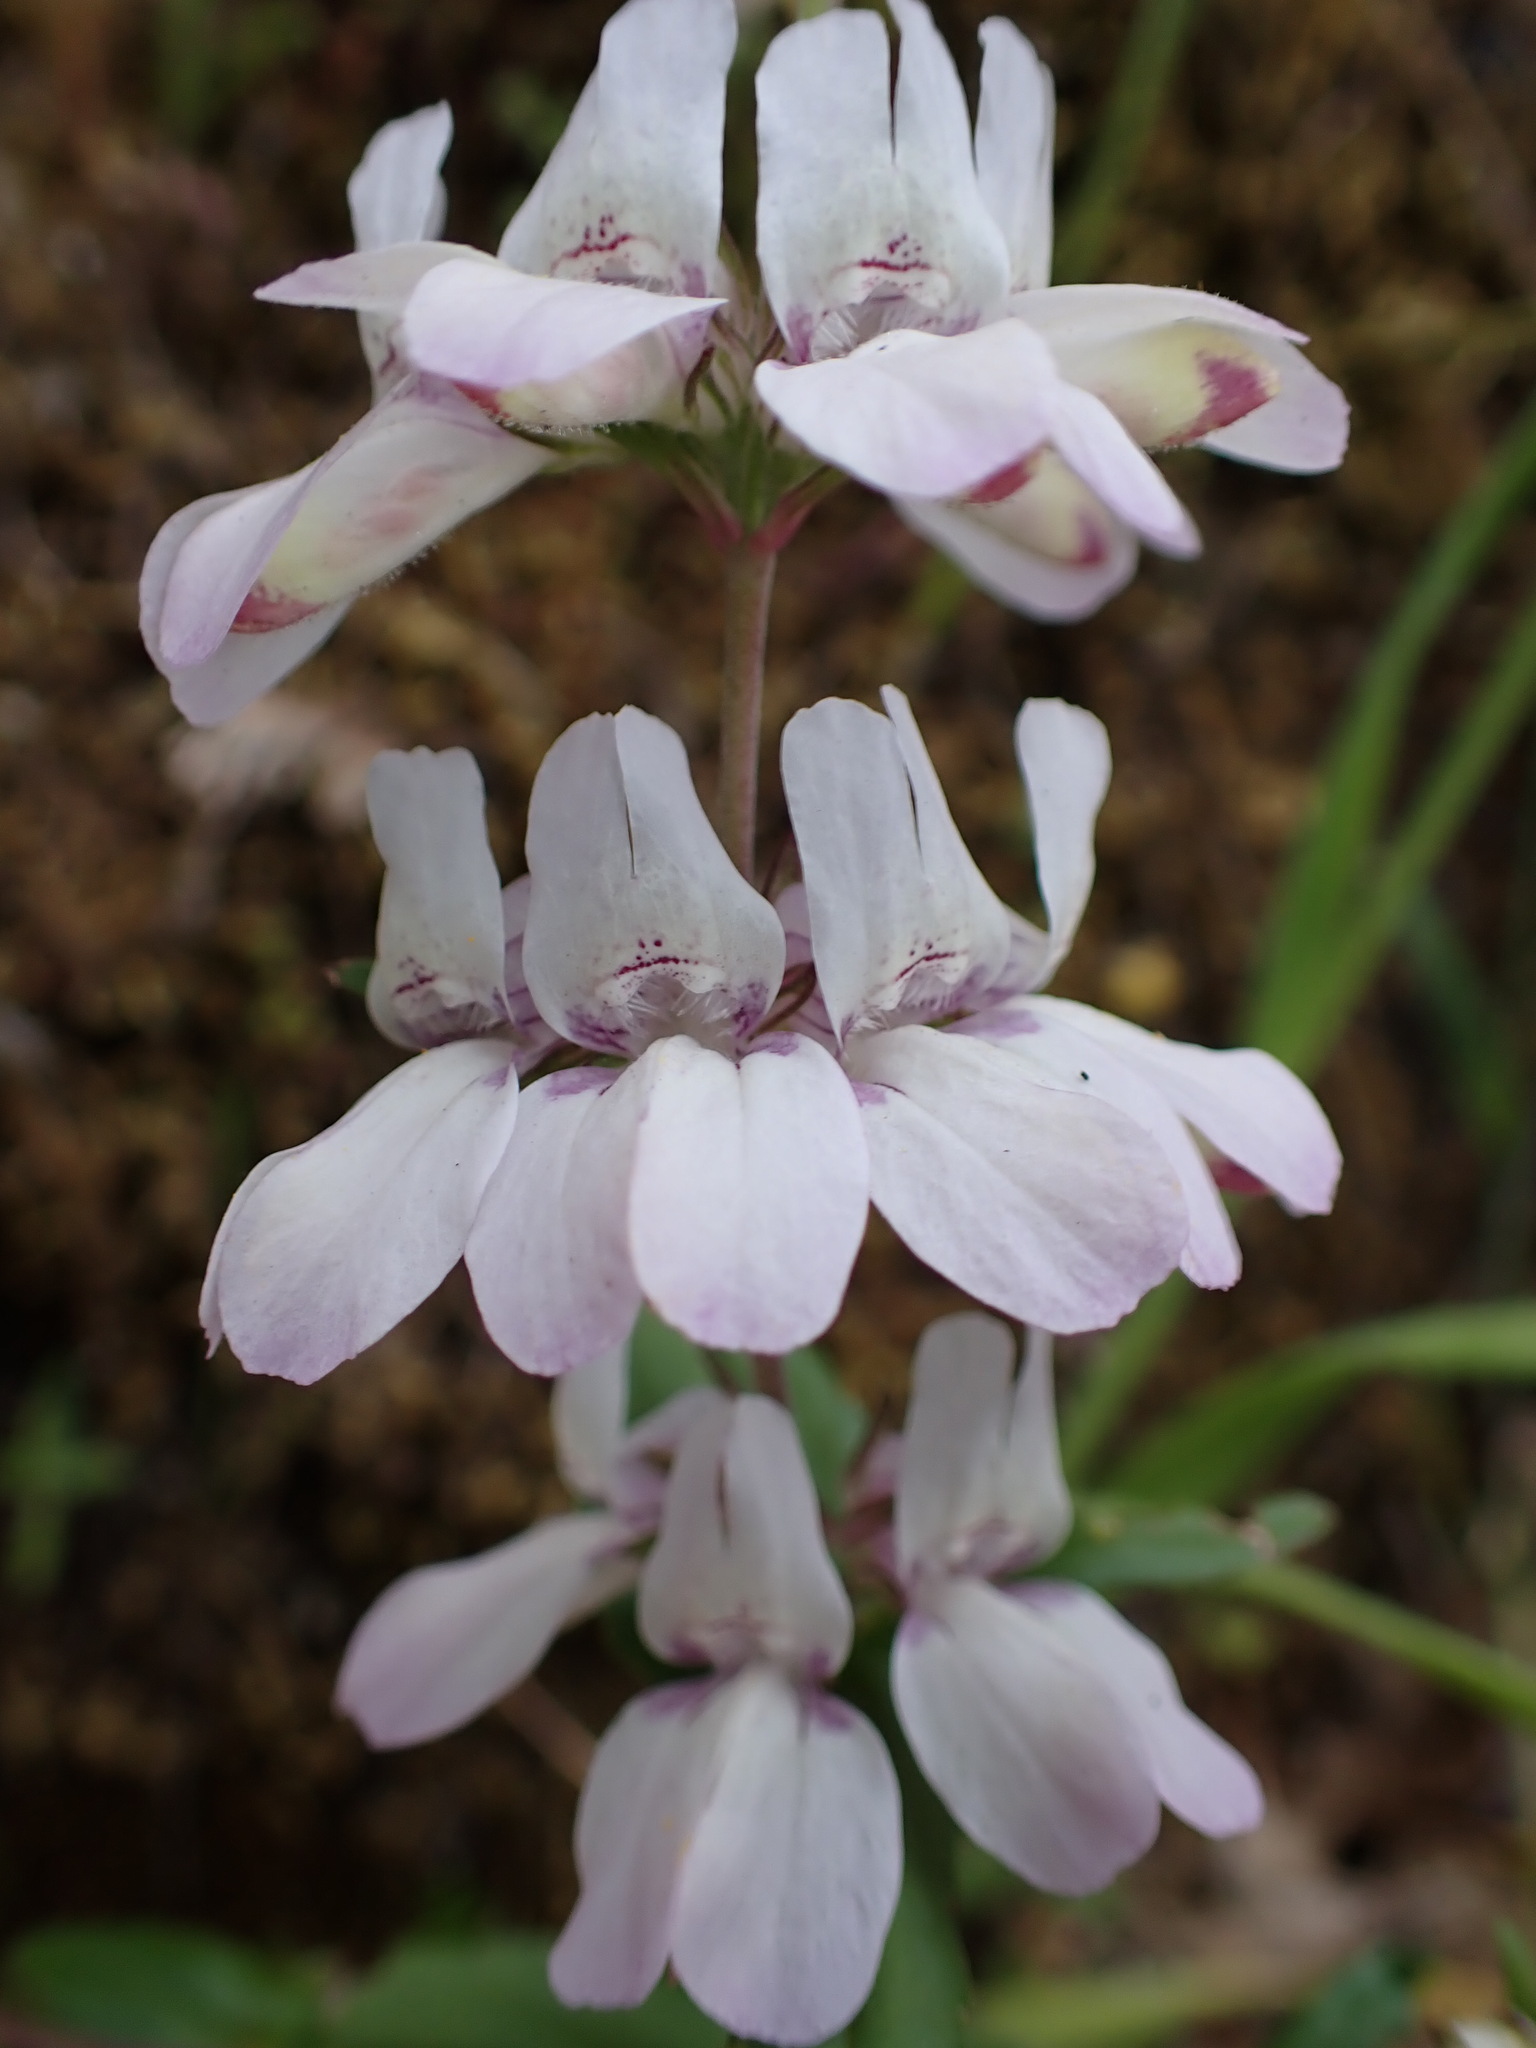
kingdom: Plantae
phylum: Tracheophyta
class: Magnoliopsida
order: Lamiales
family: Plantaginaceae
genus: Collinsia
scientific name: Collinsia heterophylla
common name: Chinese-houses
